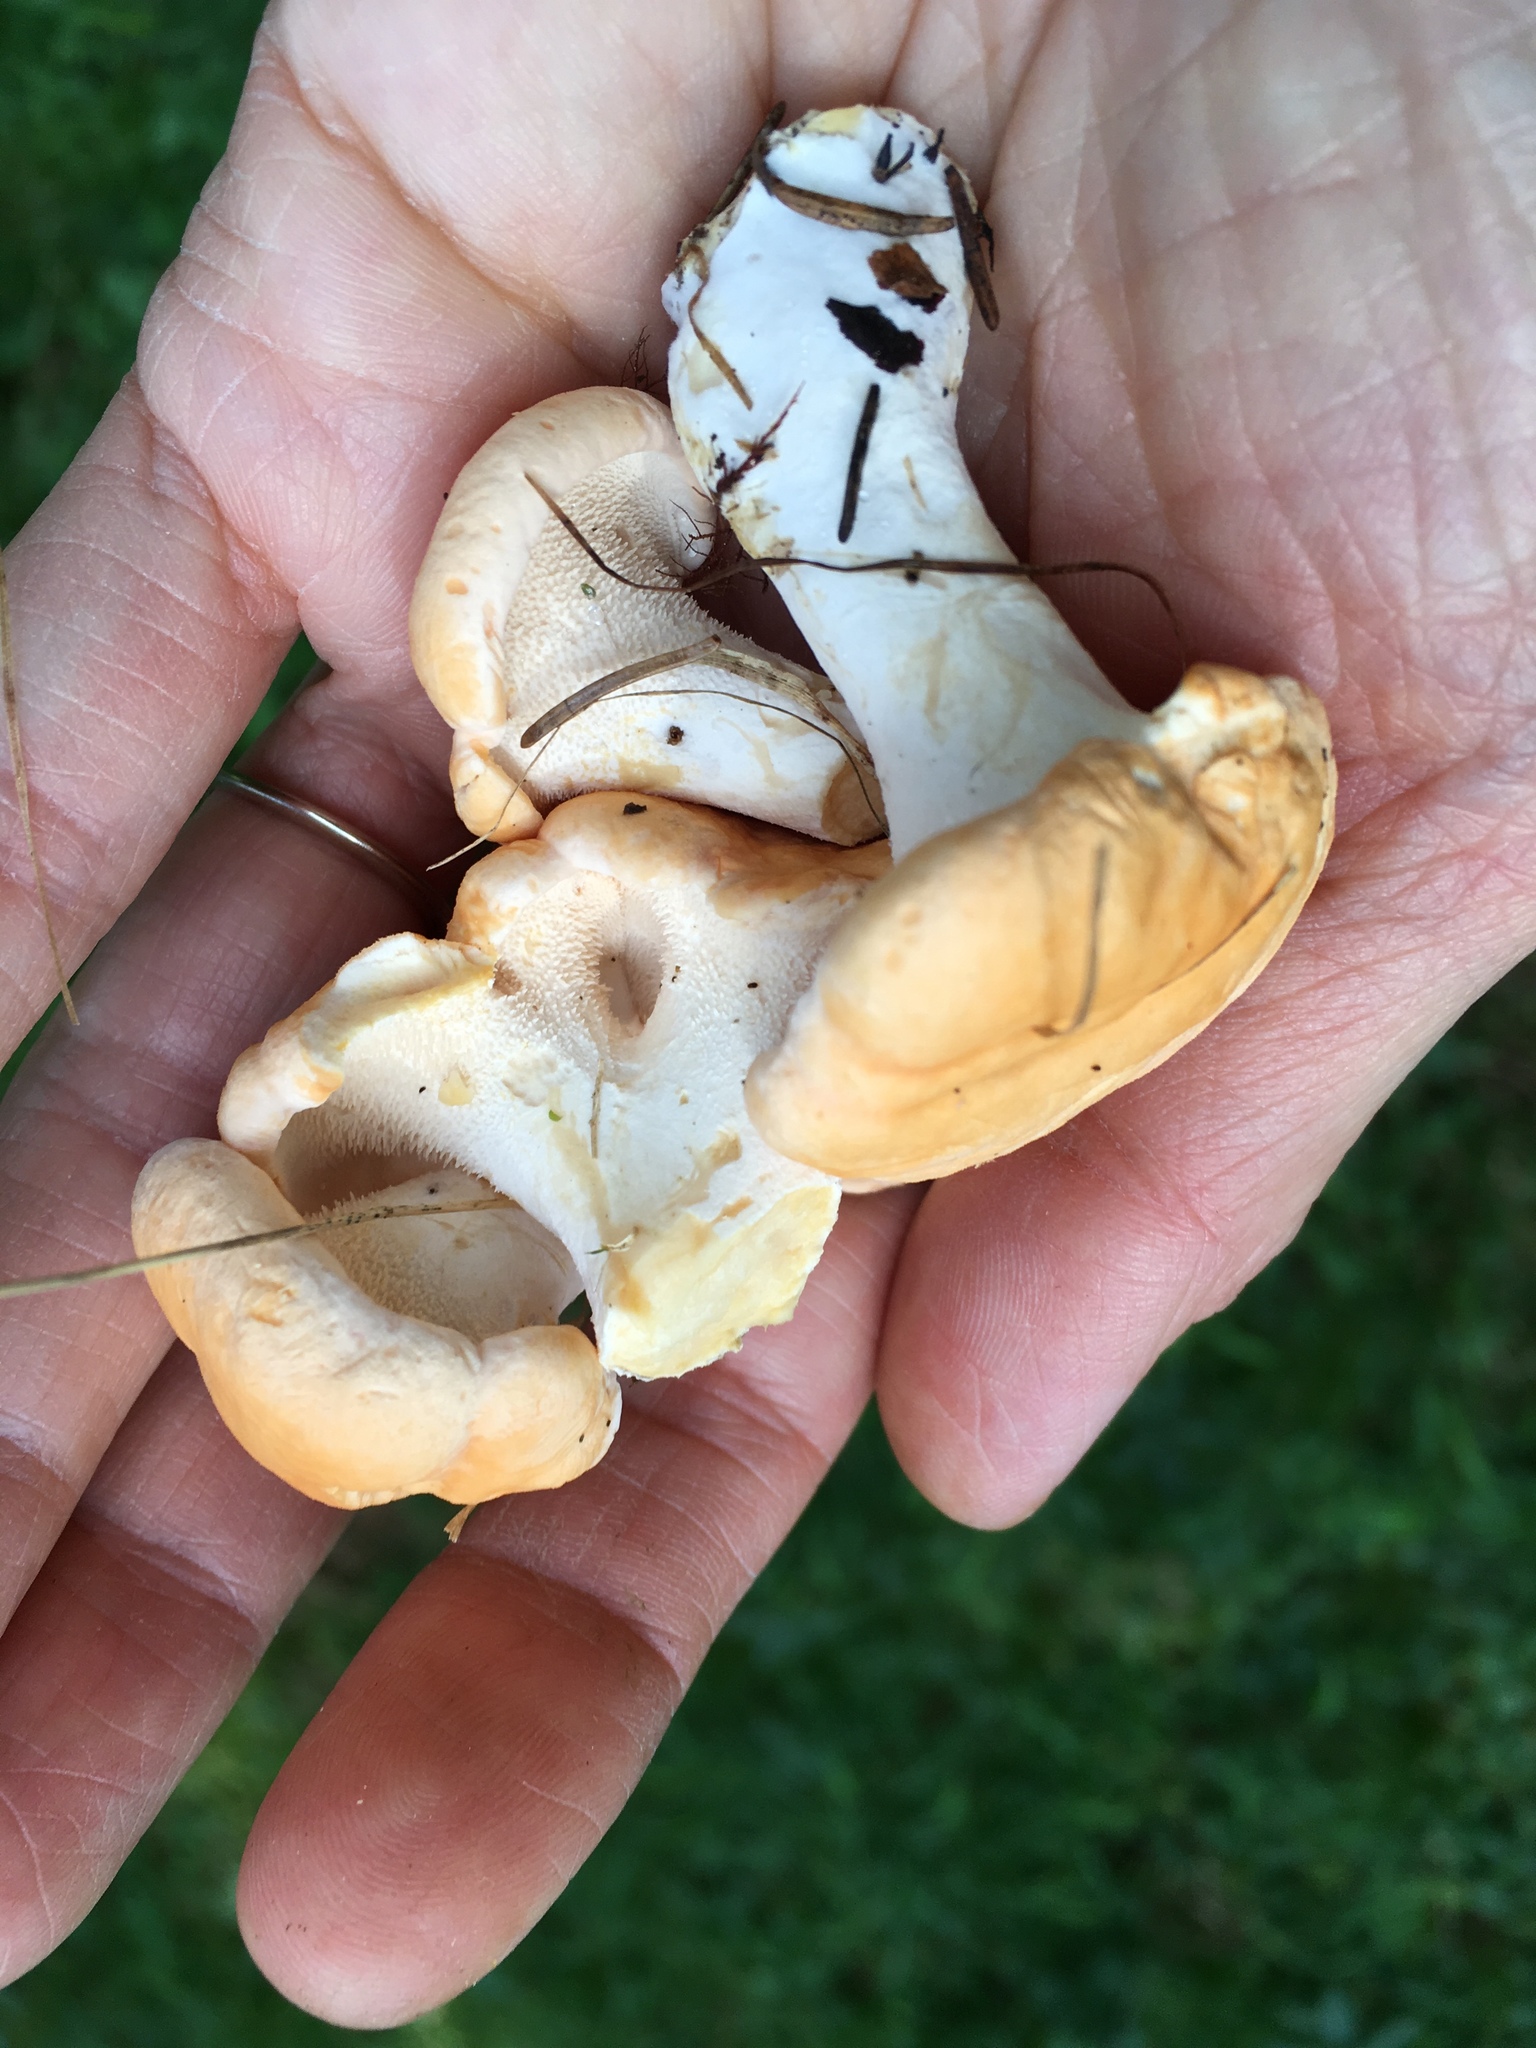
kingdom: Fungi
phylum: Basidiomycota
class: Agaricomycetes
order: Cantharellales
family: Hydnaceae
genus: Hydnum
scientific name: Hydnum repandum
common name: Wood hedgehog
